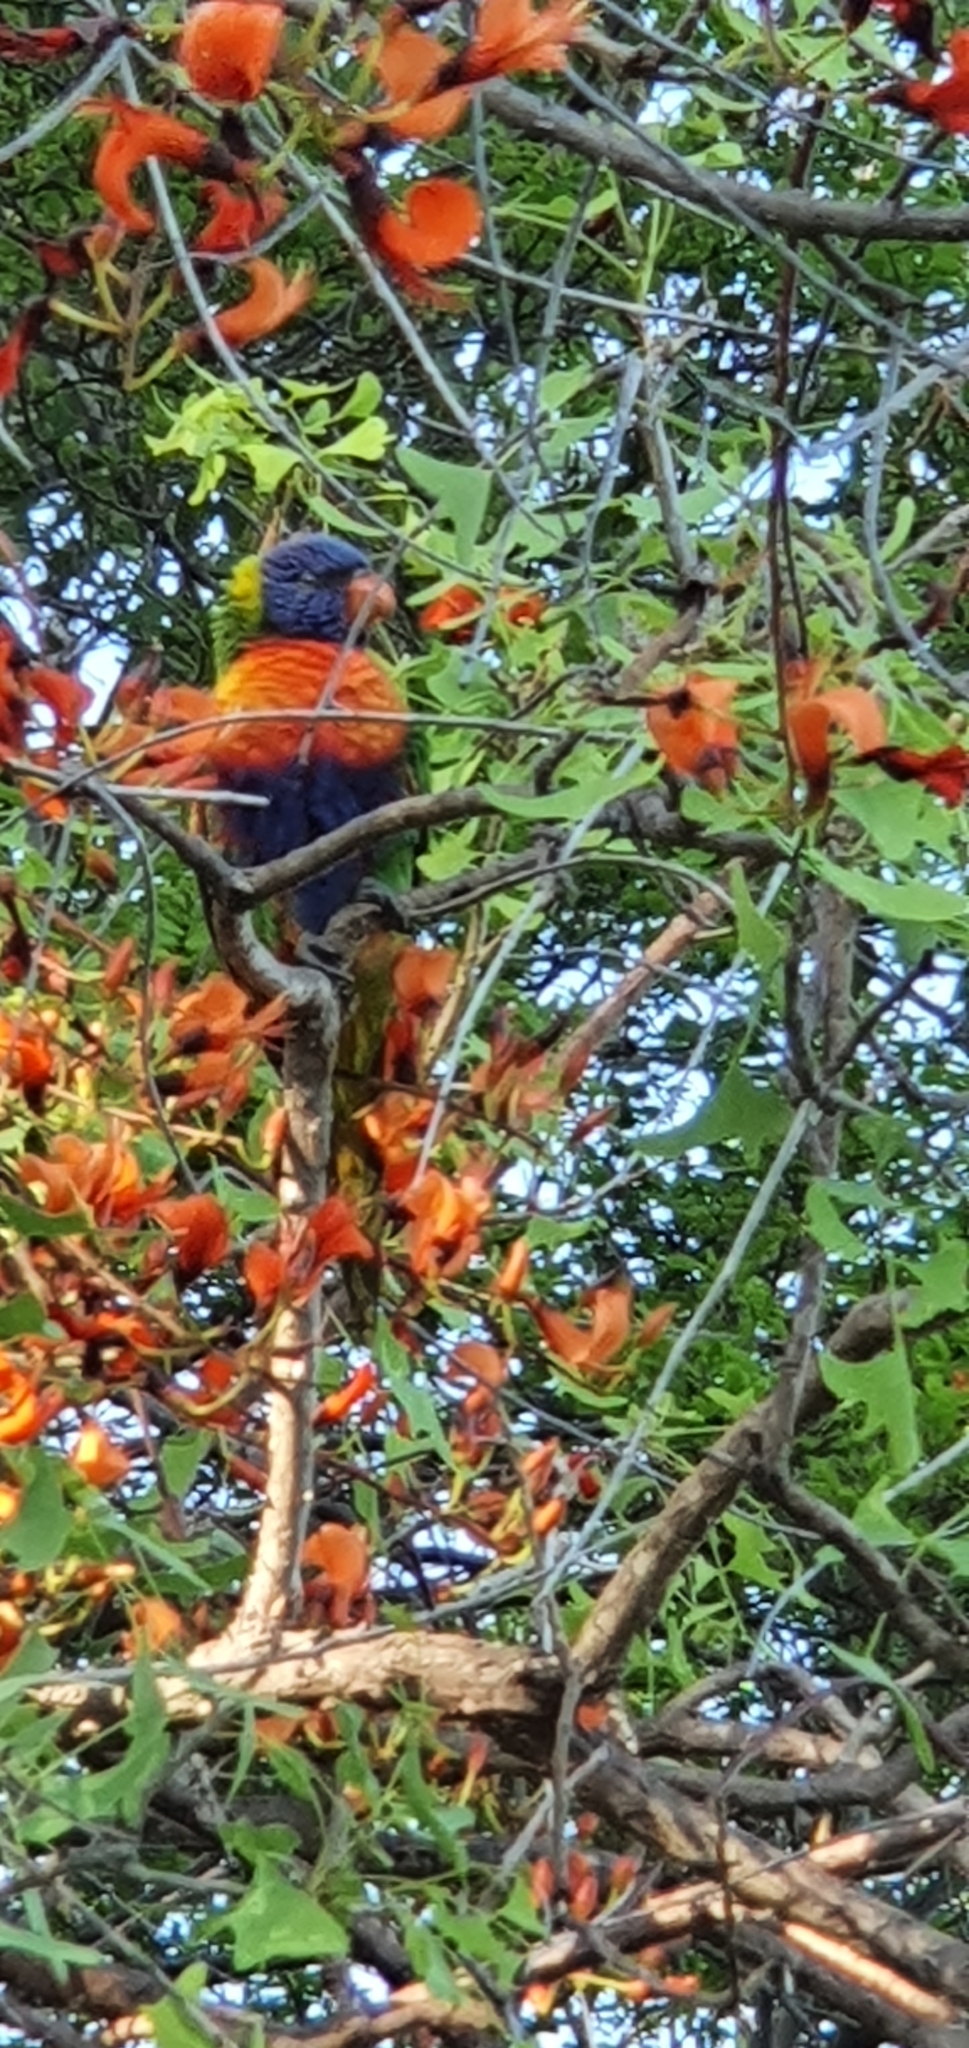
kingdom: Animalia
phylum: Chordata
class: Aves
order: Psittaciformes
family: Psittacidae
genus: Trichoglossus
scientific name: Trichoglossus haematodus
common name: Coconut lorikeet
